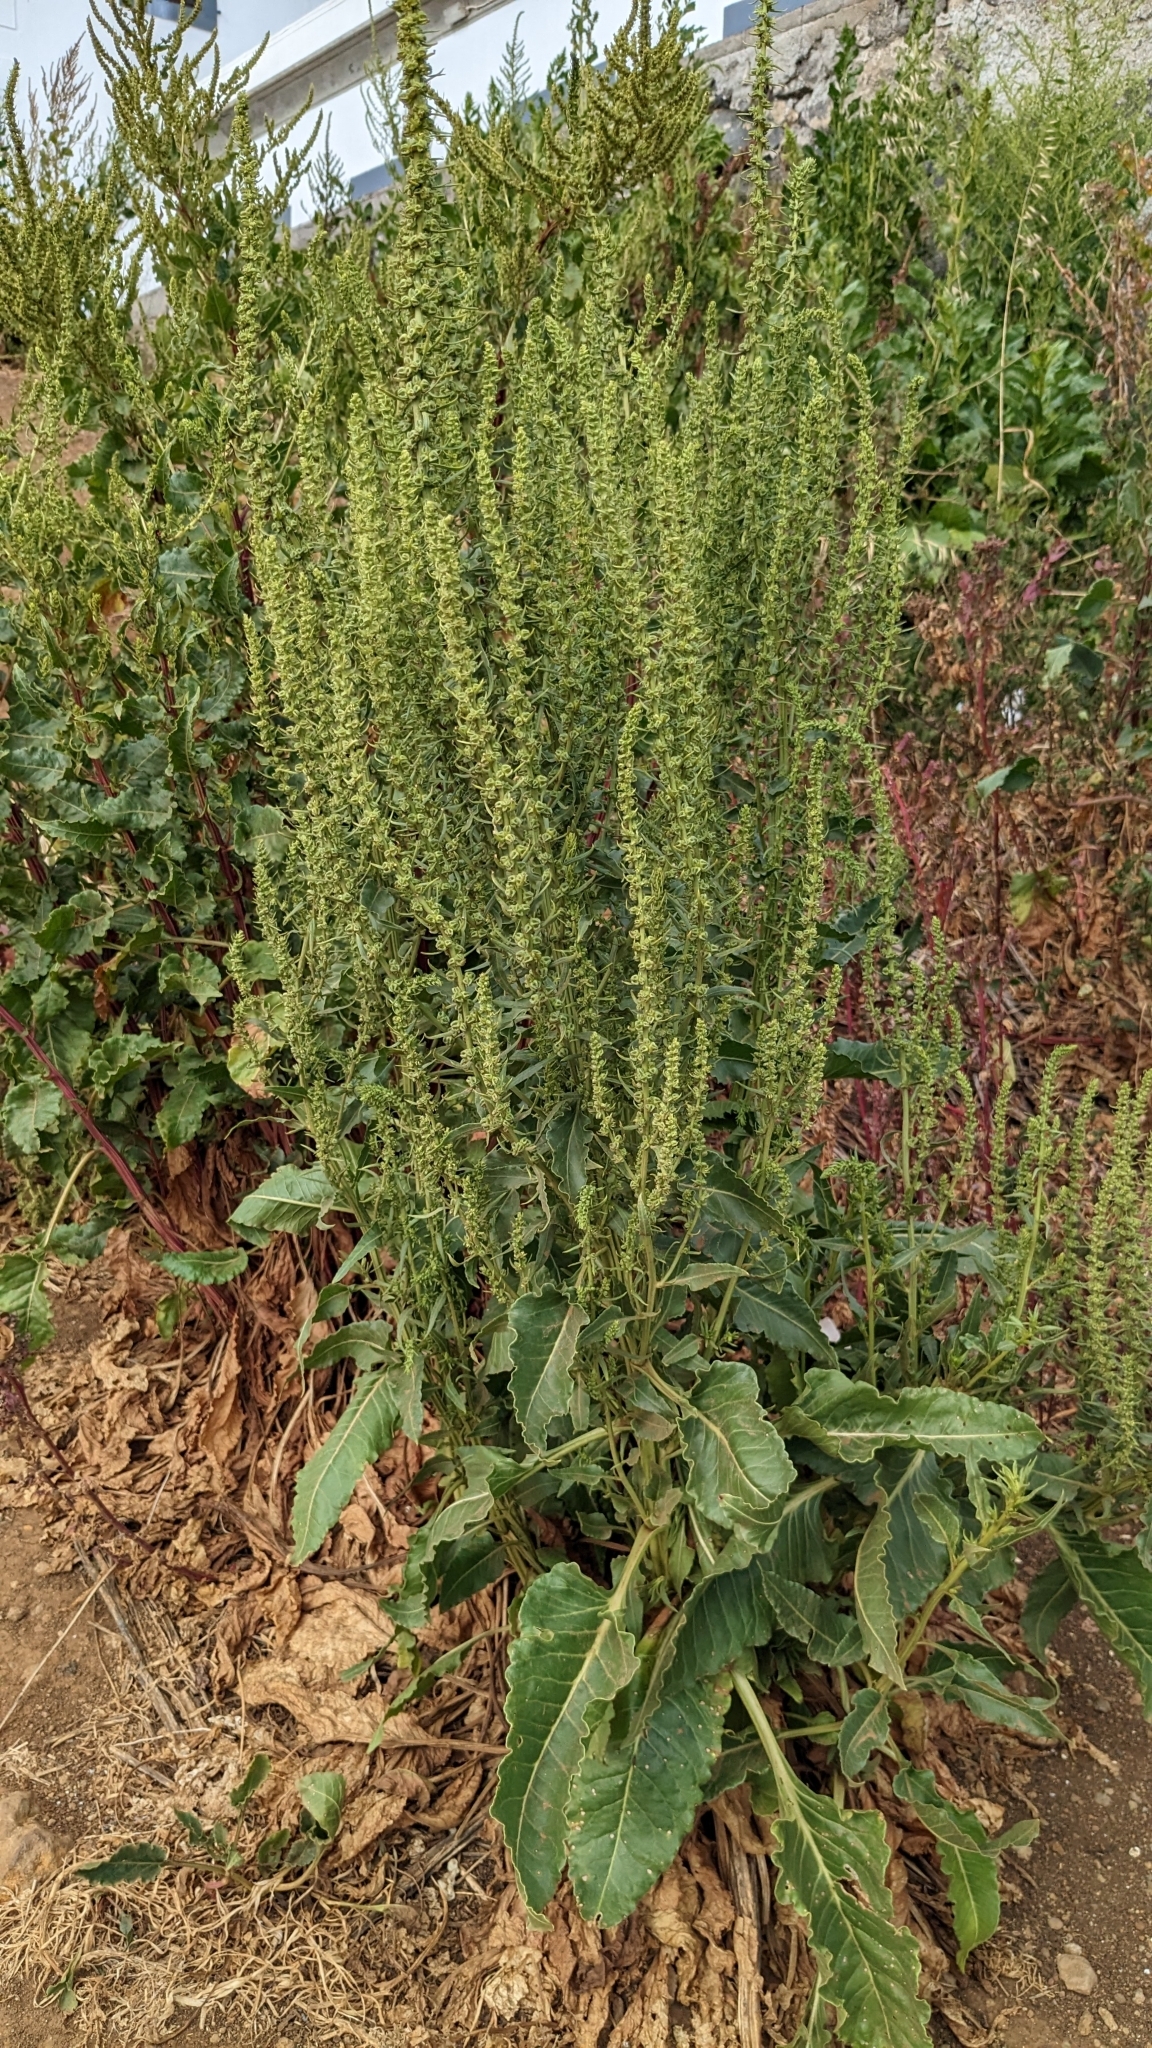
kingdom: Plantae
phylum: Tracheophyta
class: Magnoliopsida
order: Caryophyllales
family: Amaranthaceae
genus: Beta
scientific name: Beta vulgaris
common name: Beet
